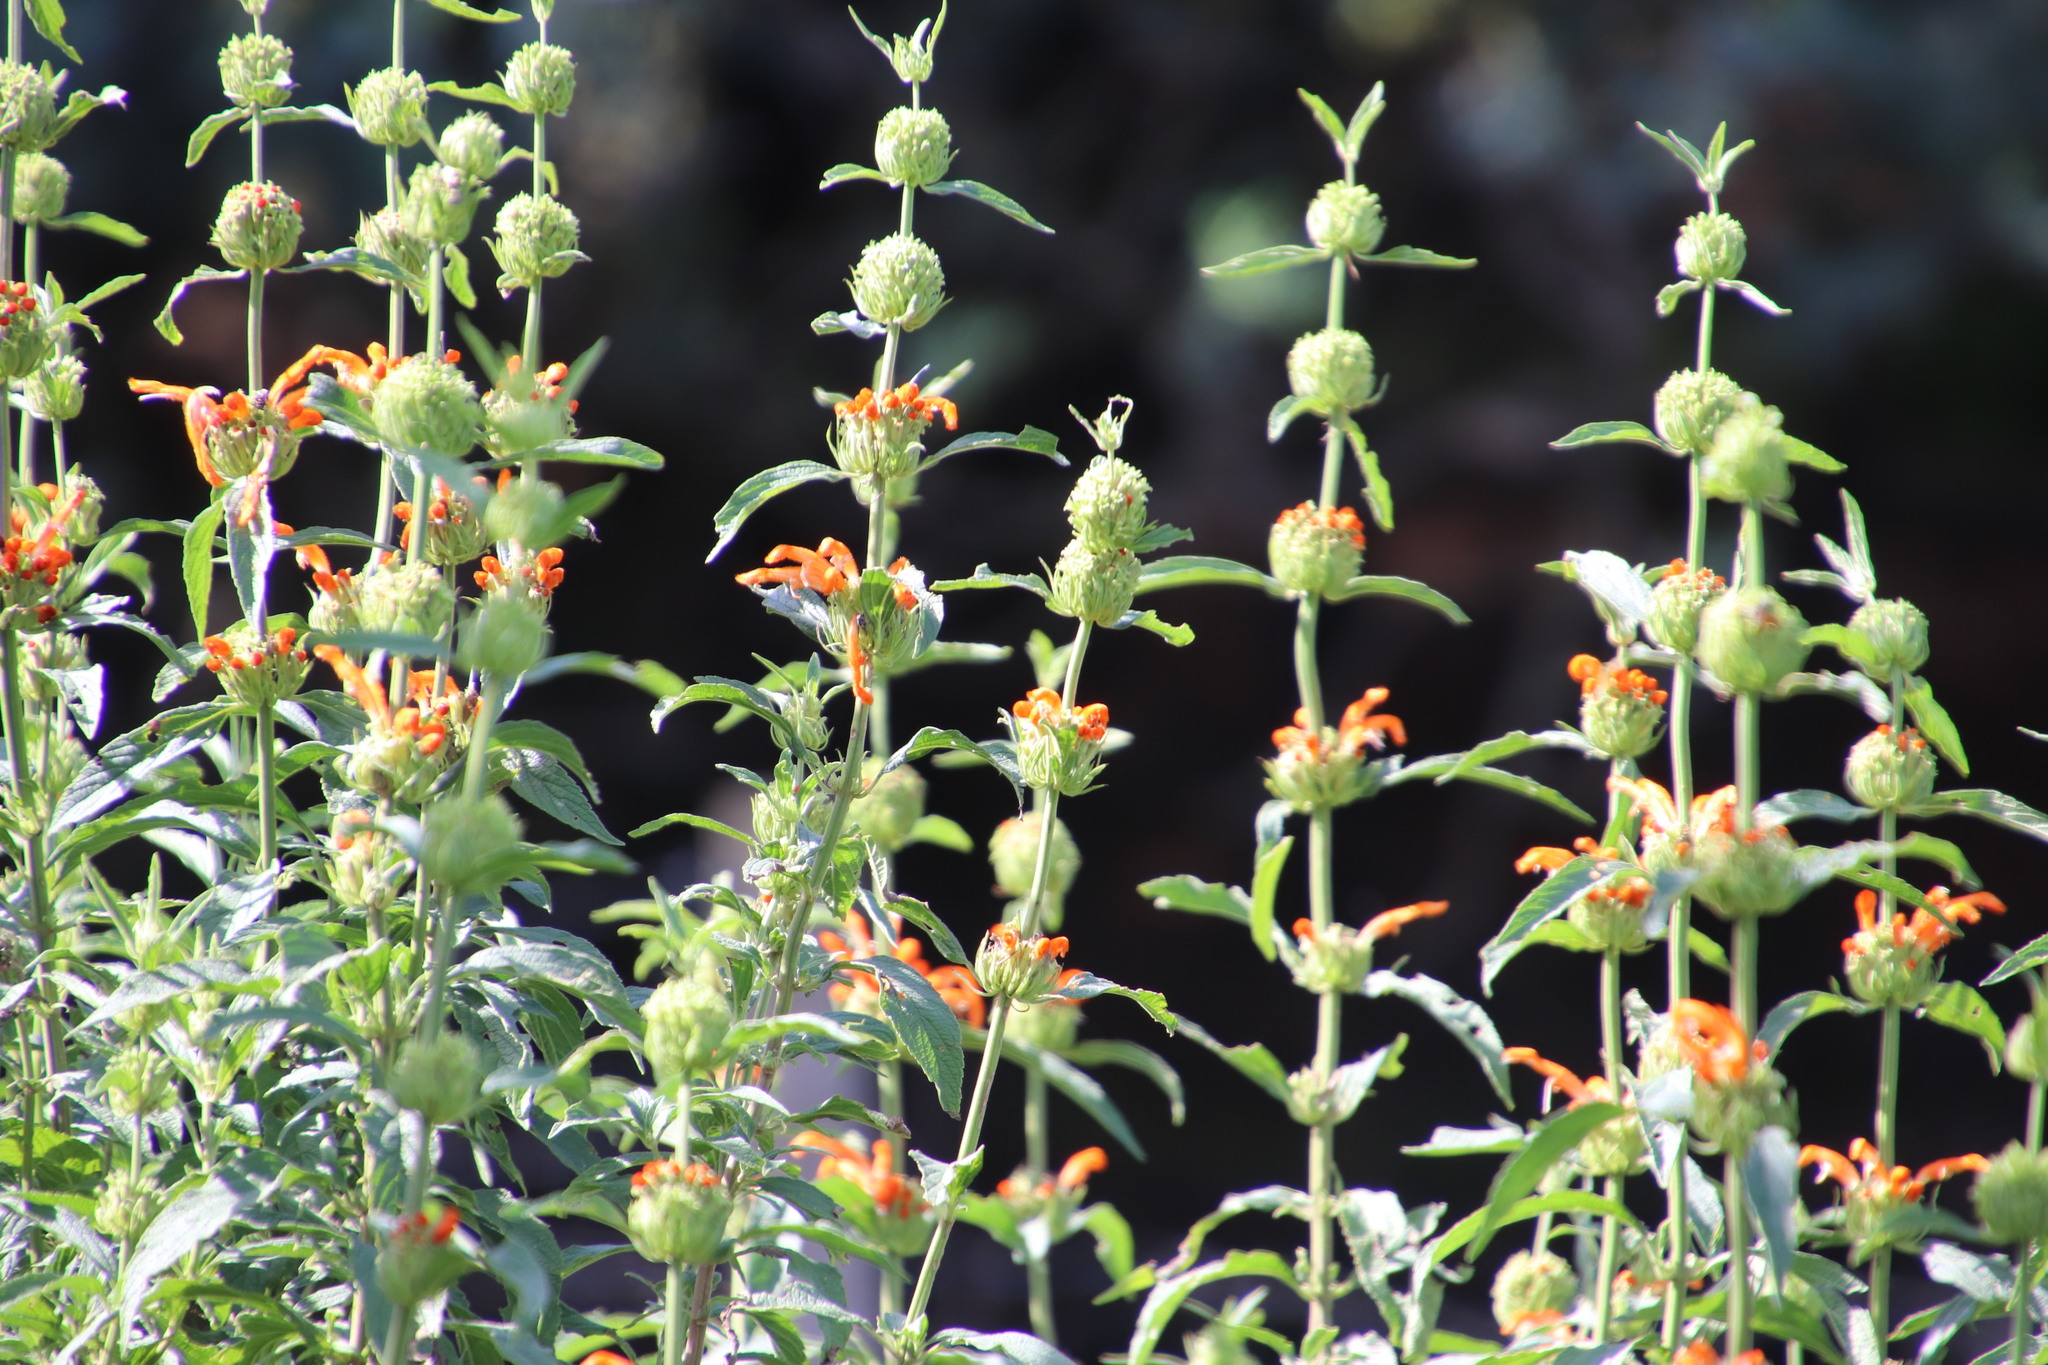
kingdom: Plantae
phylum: Tracheophyta
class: Magnoliopsida
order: Lamiales
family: Lamiaceae
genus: Leonotis
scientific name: Leonotis leonurus
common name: Lion's ear
